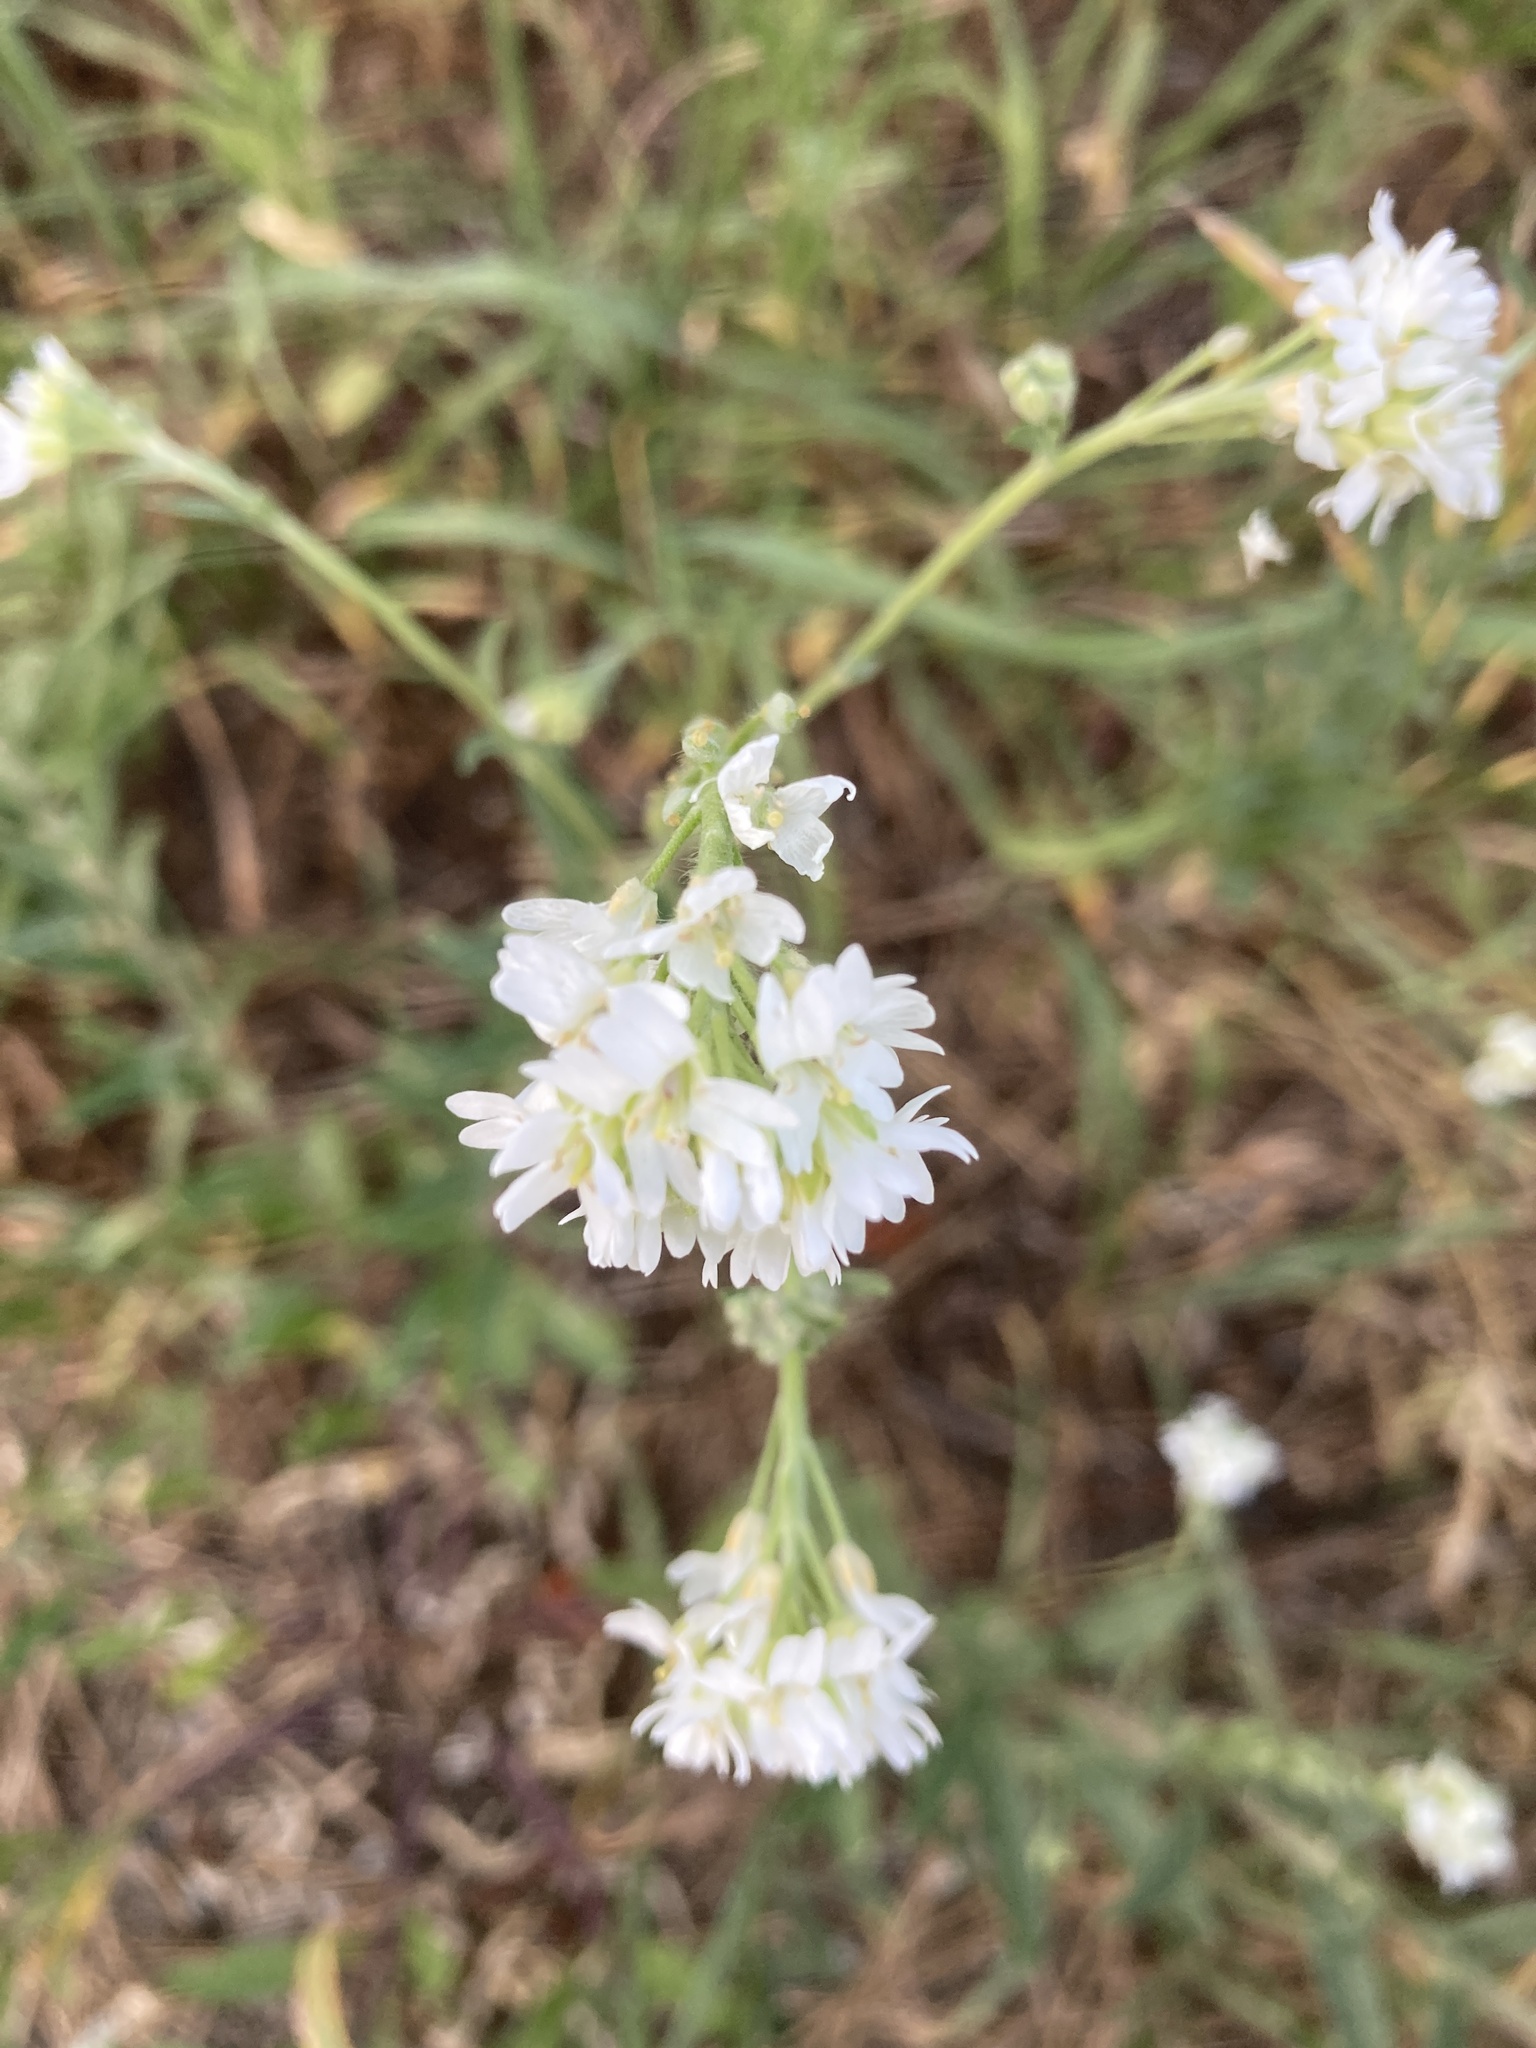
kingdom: Plantae
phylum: Tracheophyta
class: Magnoliopsida
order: Brassicales
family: Brassicaceae
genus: Berteroa
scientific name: Berteroa incana
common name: Hoary alison
